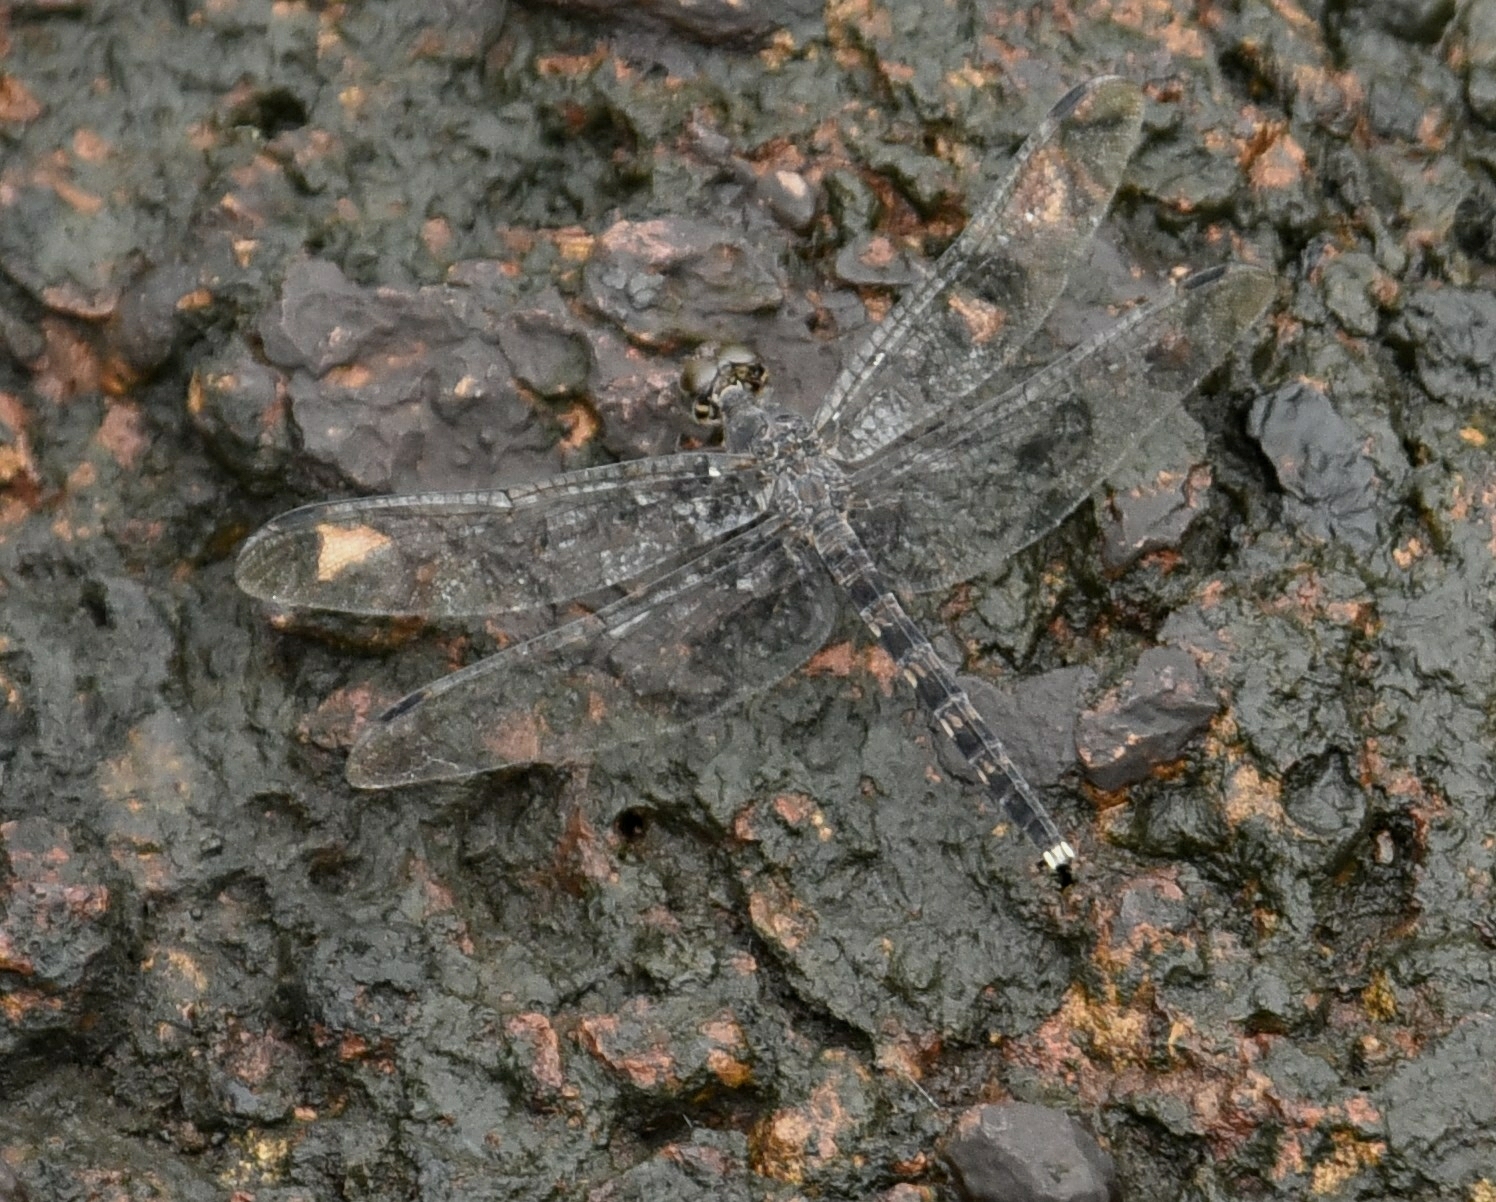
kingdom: Animalia
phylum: Arthropoda
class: Insecta
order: Odonata
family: Libellulidae
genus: Bradinopyga
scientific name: Bradinopyga geminata
